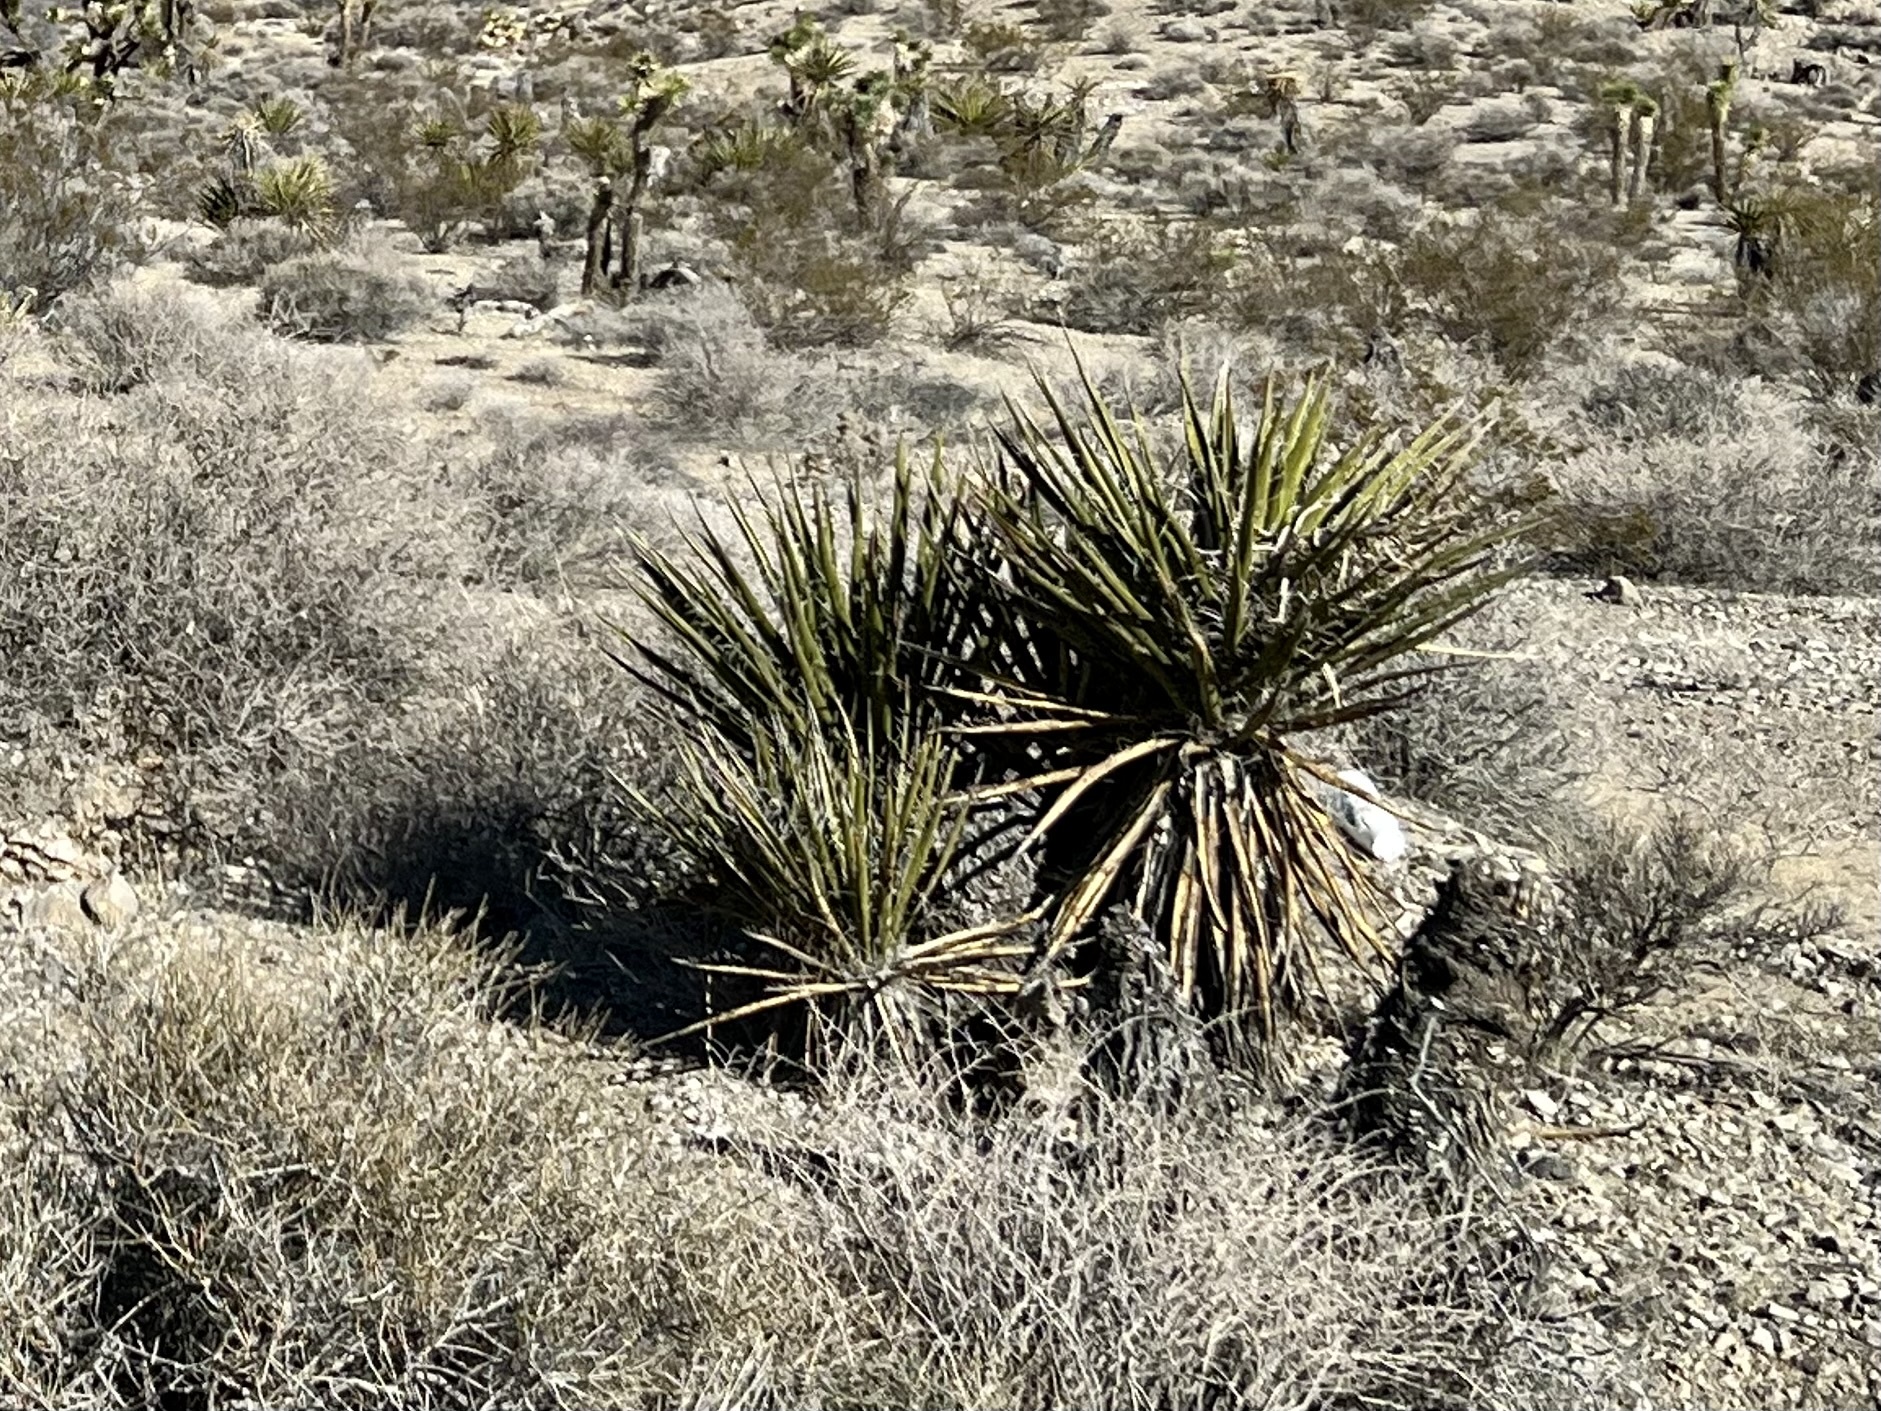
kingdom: Plantae
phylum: Tracheophyta
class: Liliopsida
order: Asparagales
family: Asparagaceae
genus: Yucca
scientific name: Yucca schidigera
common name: Mojave yucca
